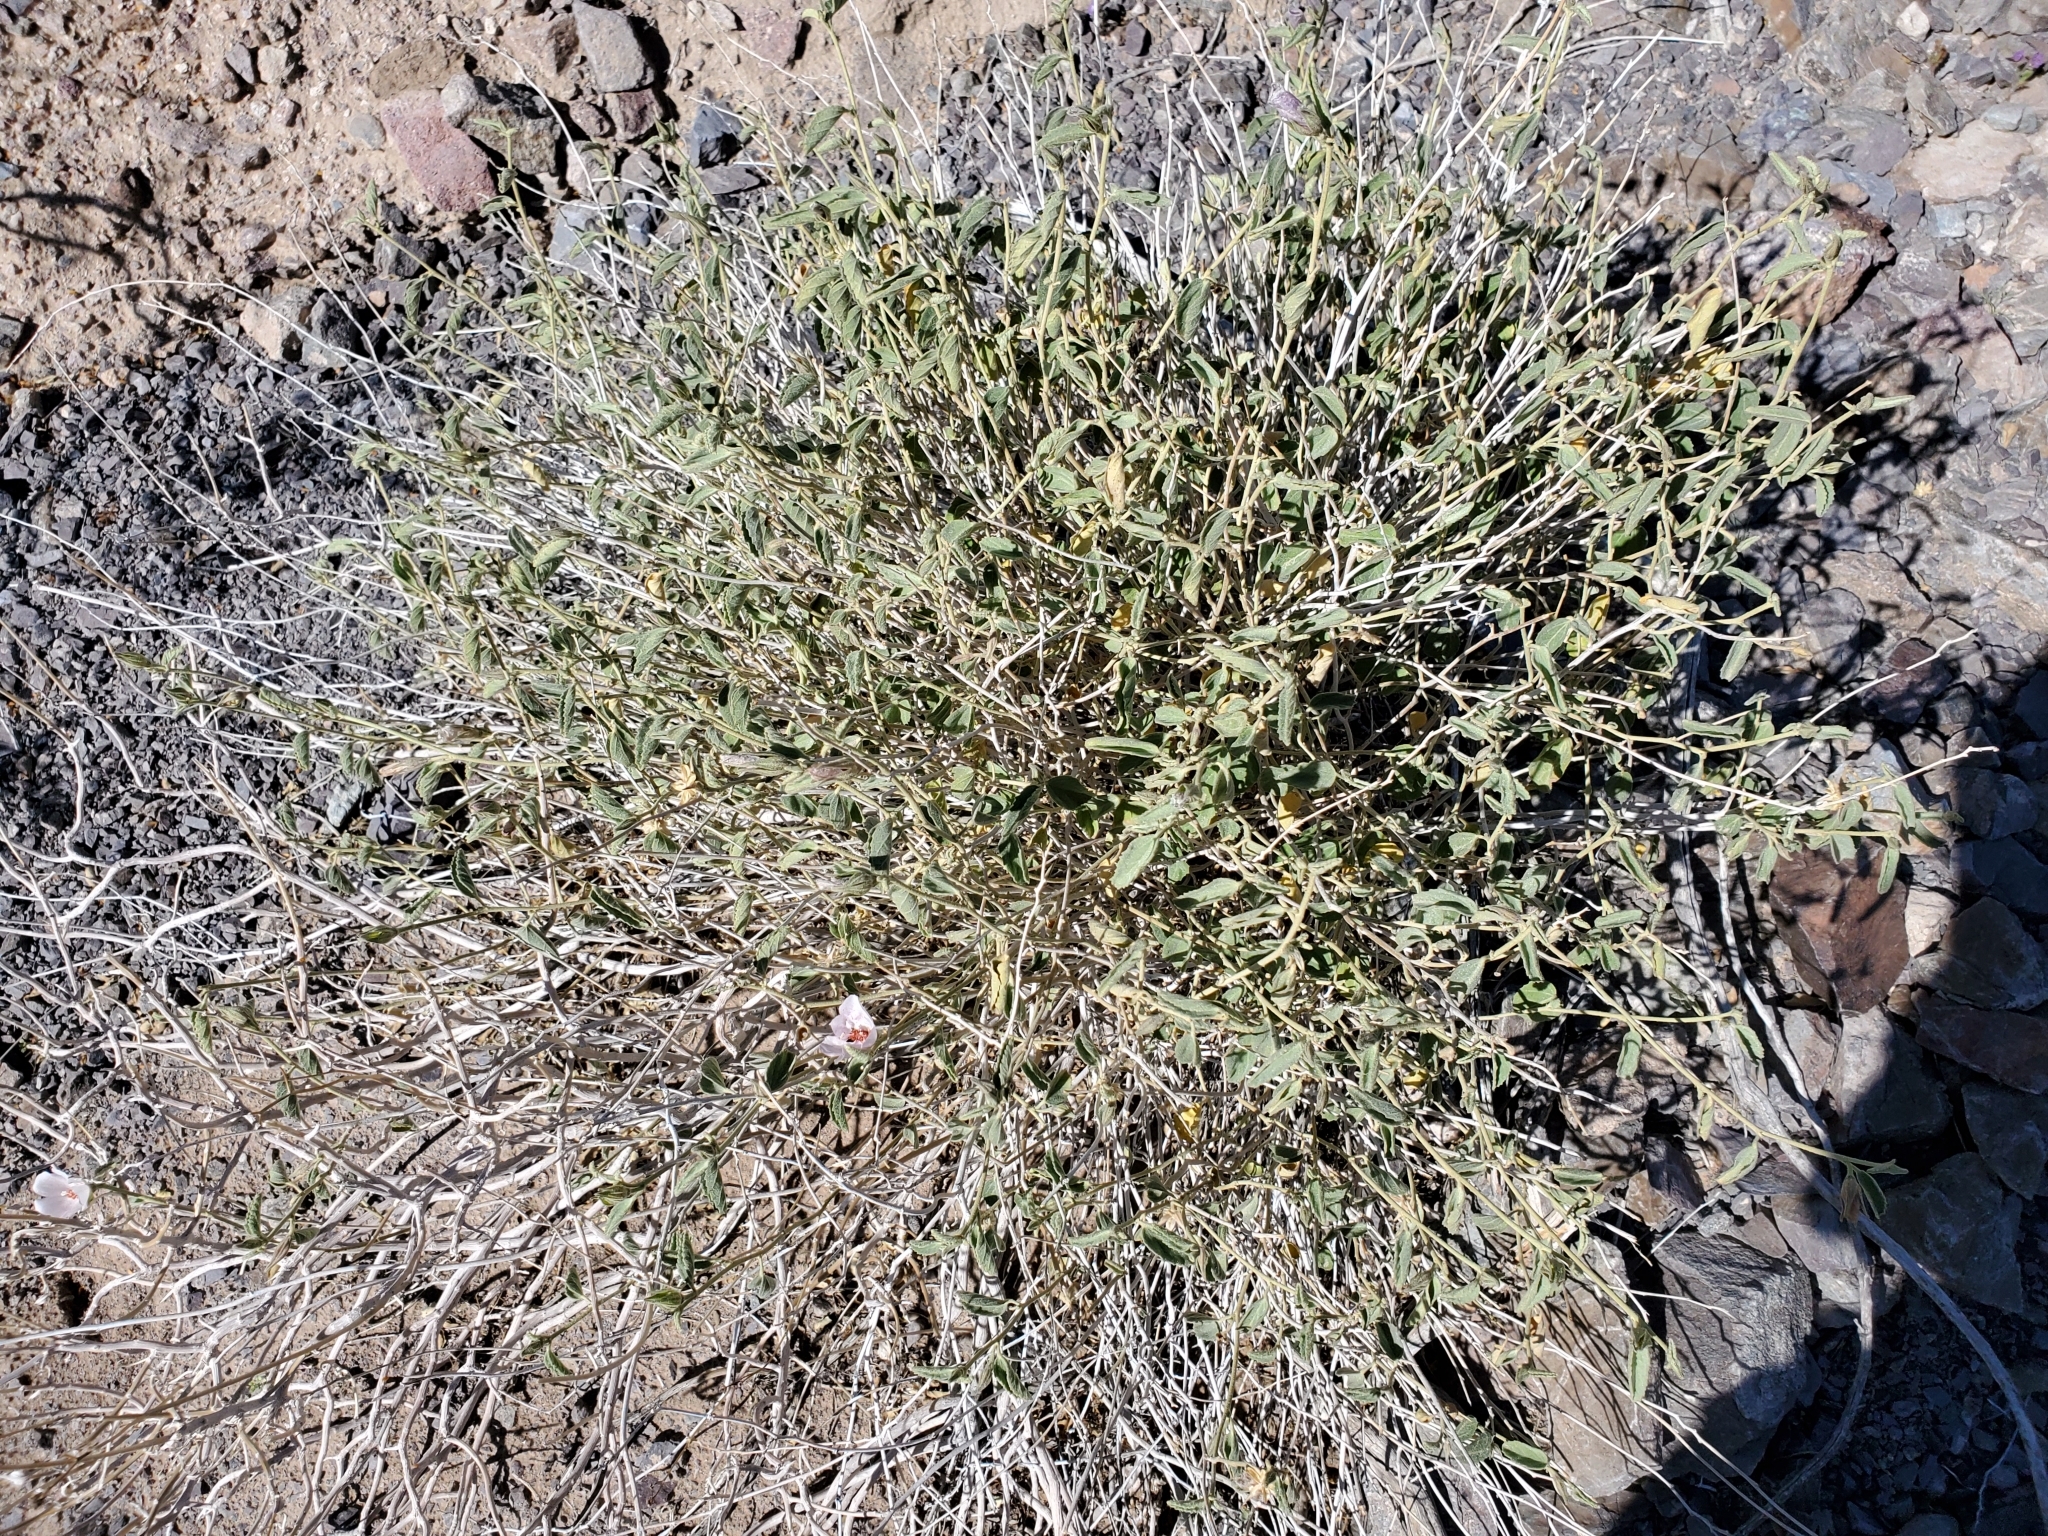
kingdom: Plantae
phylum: Tracheophyta
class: Magnoliopsida
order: Malvales
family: Malvaceae
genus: Hibiscus
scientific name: Hibiscus denudatus
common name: Paleface
